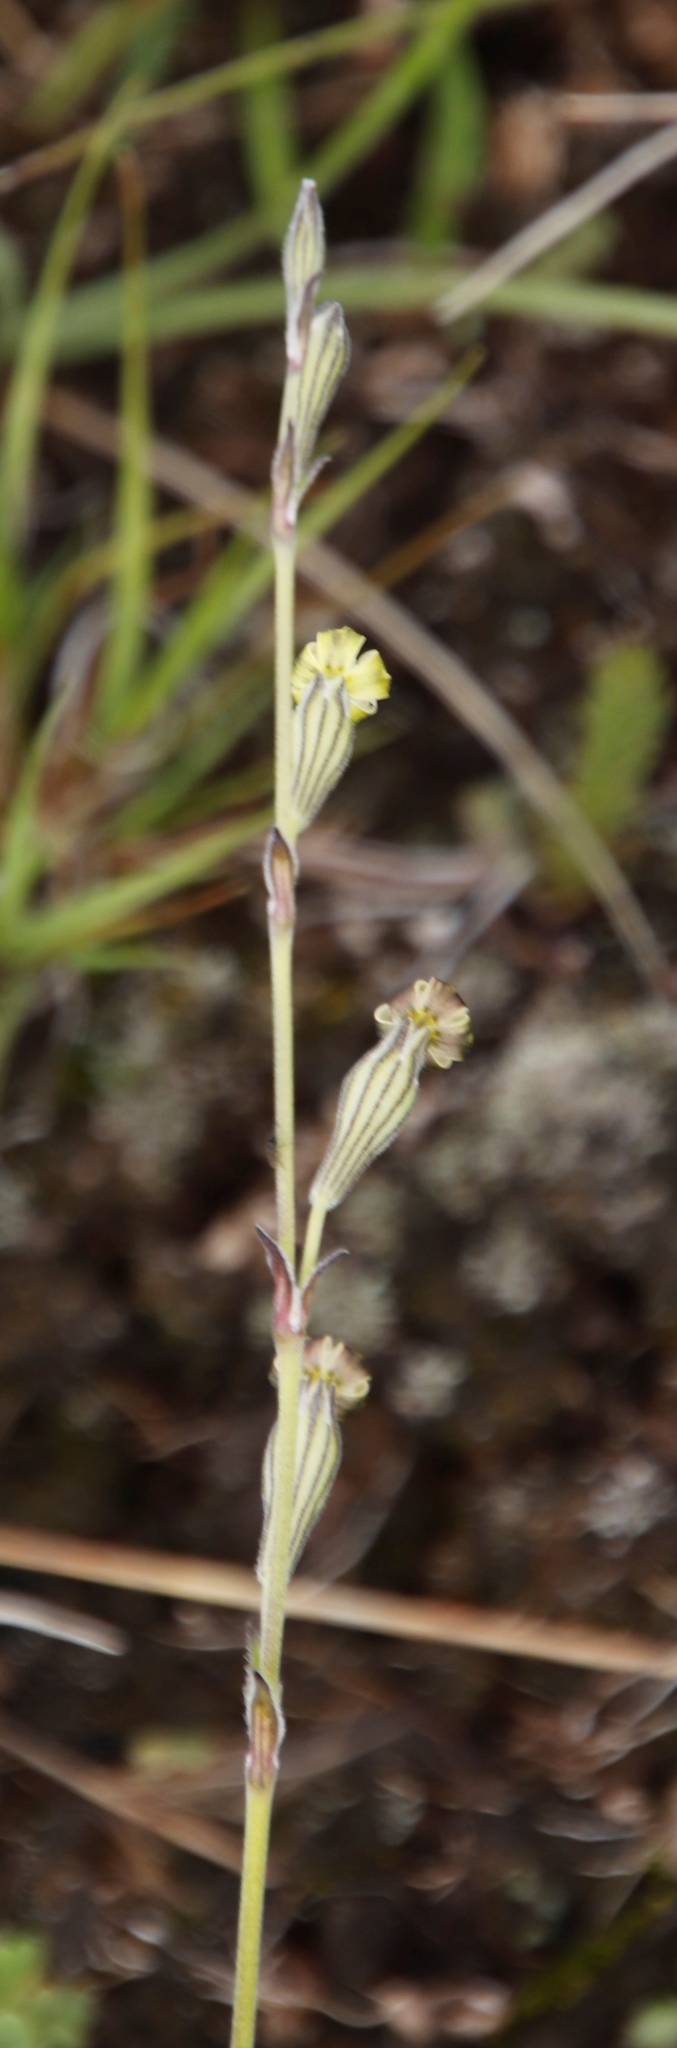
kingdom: Plantae
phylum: Tracheophyta
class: Magnoliopsida
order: Caryophyllales
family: Caryophyllaceae
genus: Silene
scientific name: Silene burchellii
